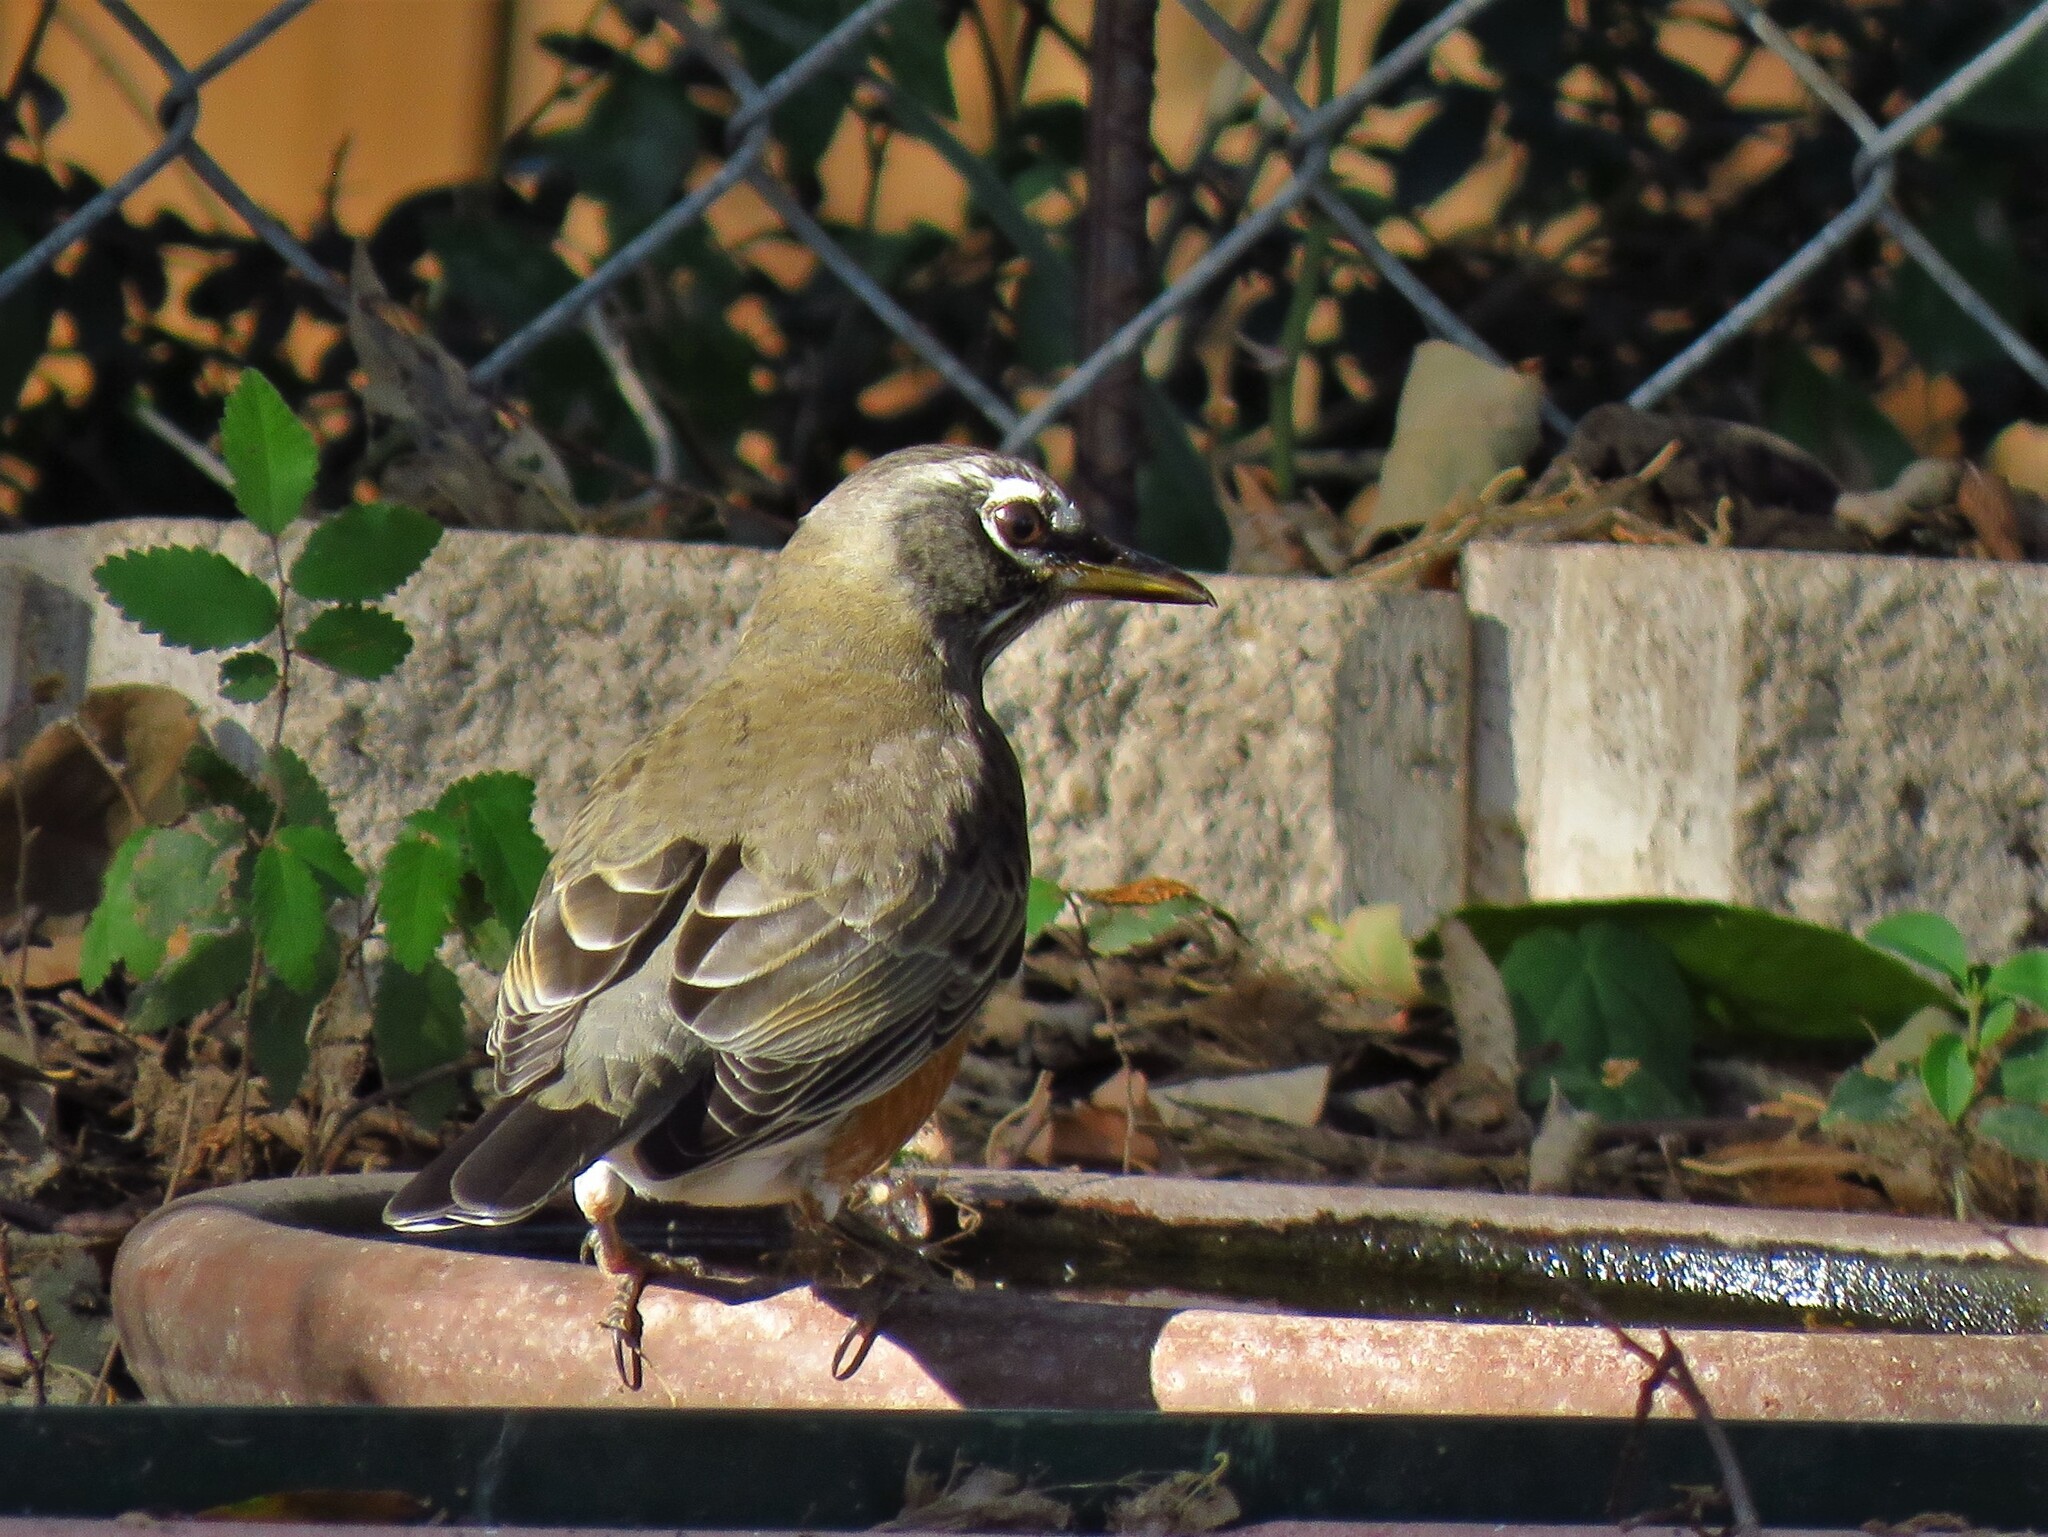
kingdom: Animalia
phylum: Chordata
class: Aves
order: Passeriformes
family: Turdidae
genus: Turdus
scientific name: Turdus migratorius
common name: American robin
